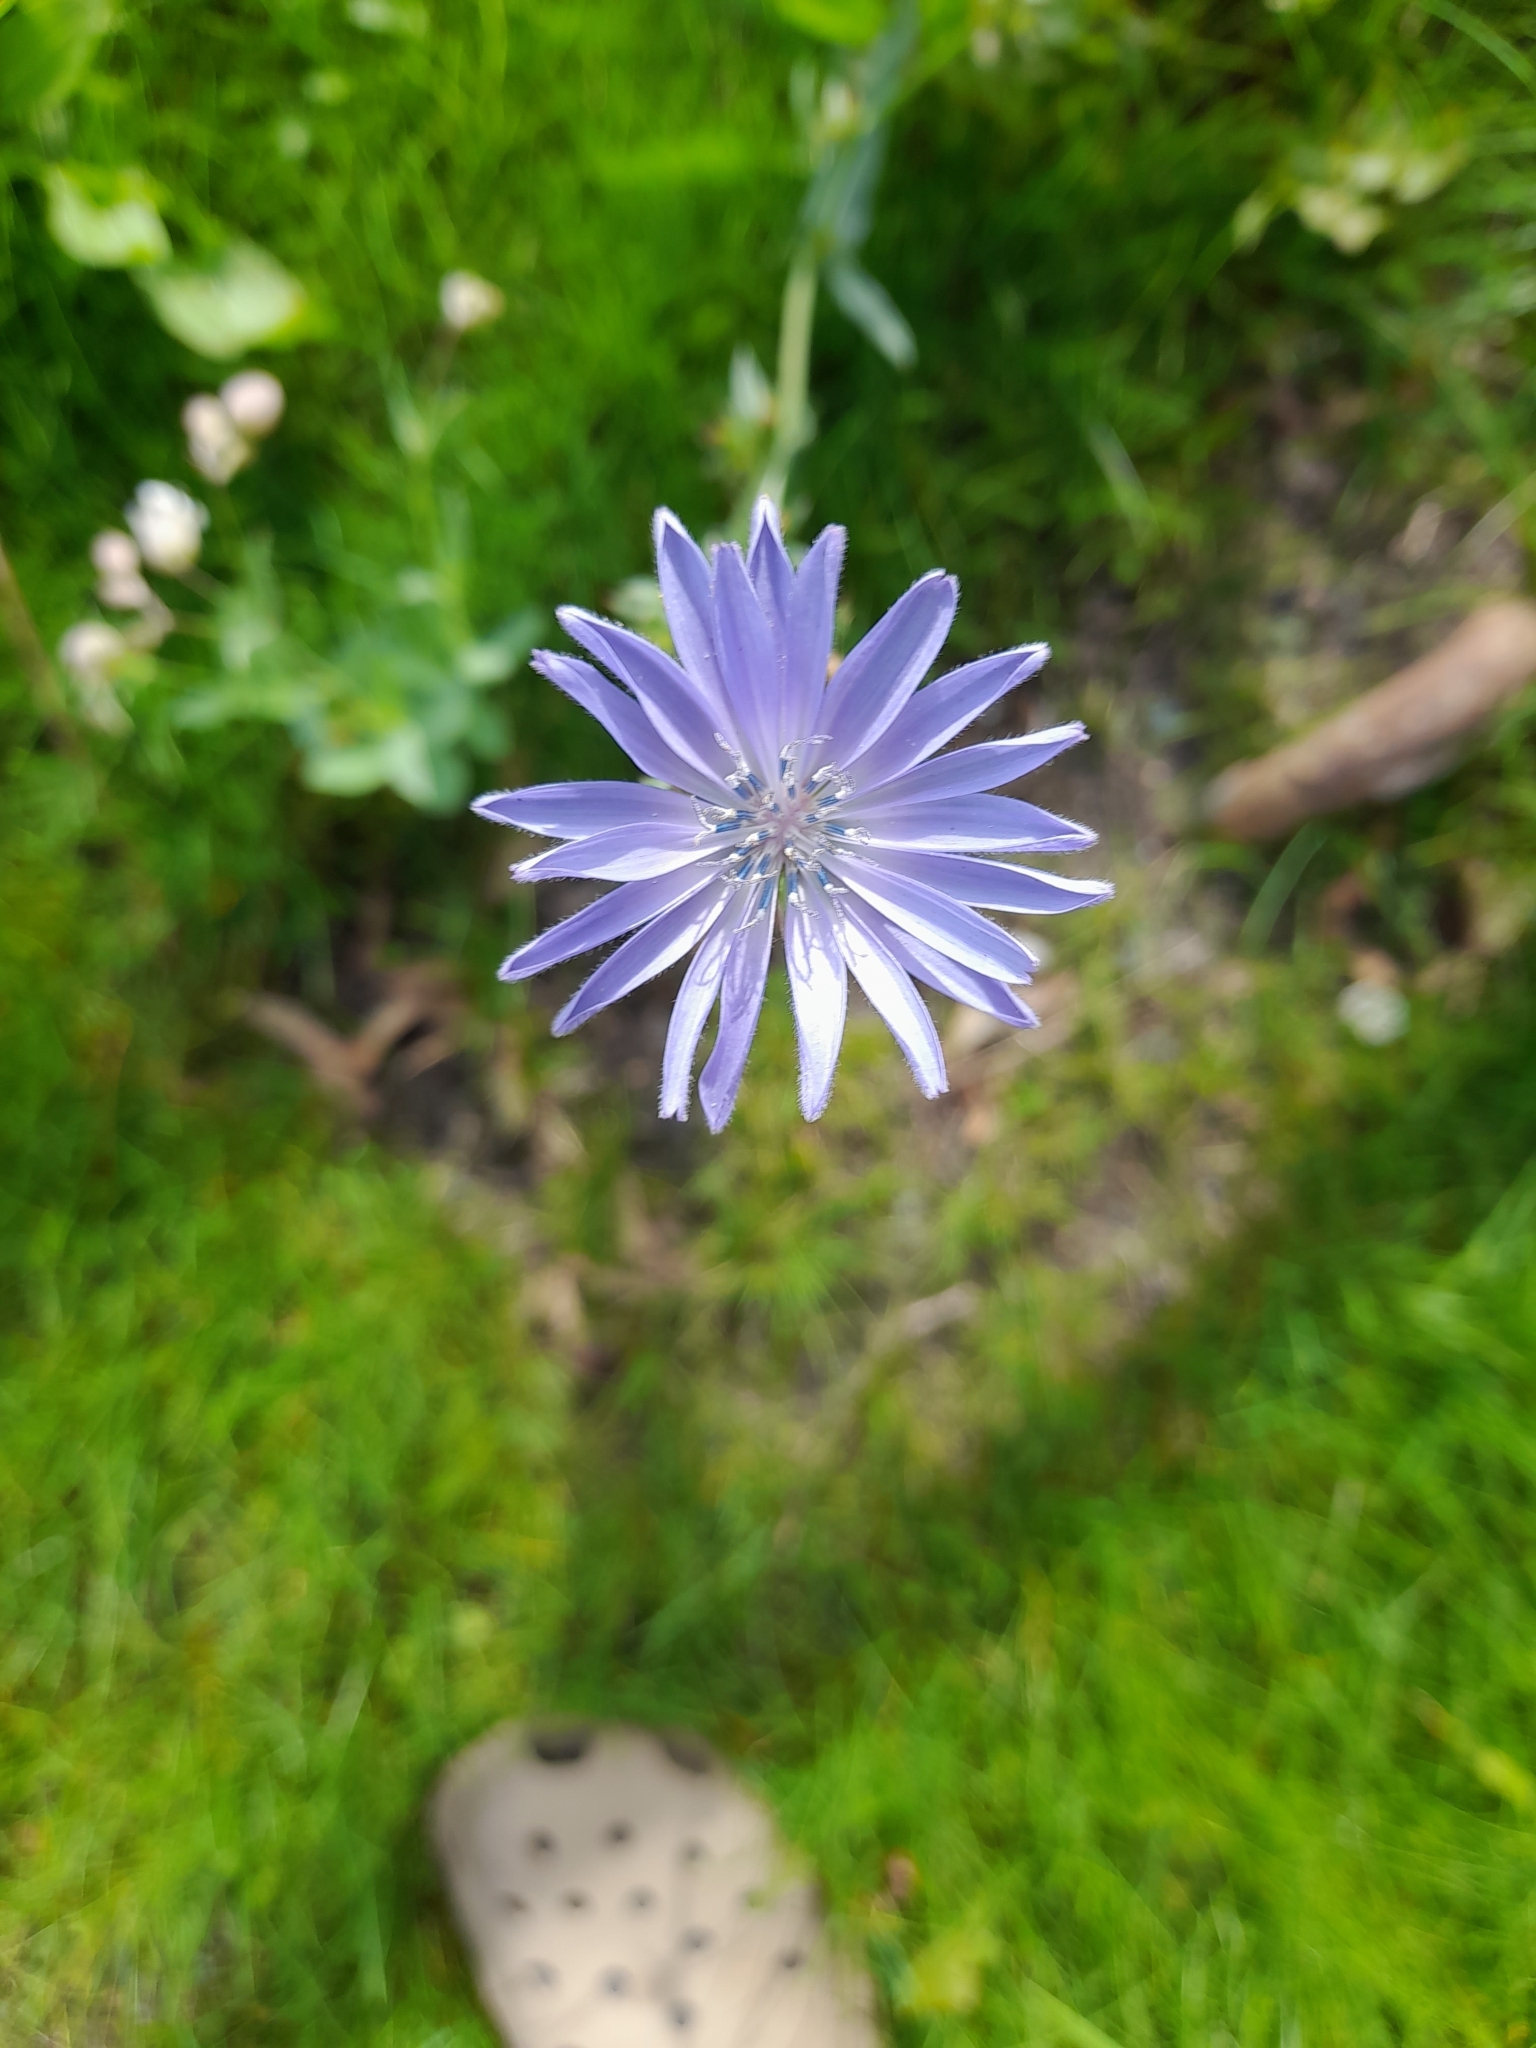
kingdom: Plantae
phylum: Tracheophyta
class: Magnoliopsida
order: Asterales
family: Asteraceae
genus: Cichorium
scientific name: Cichorium intybus
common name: Chicory
